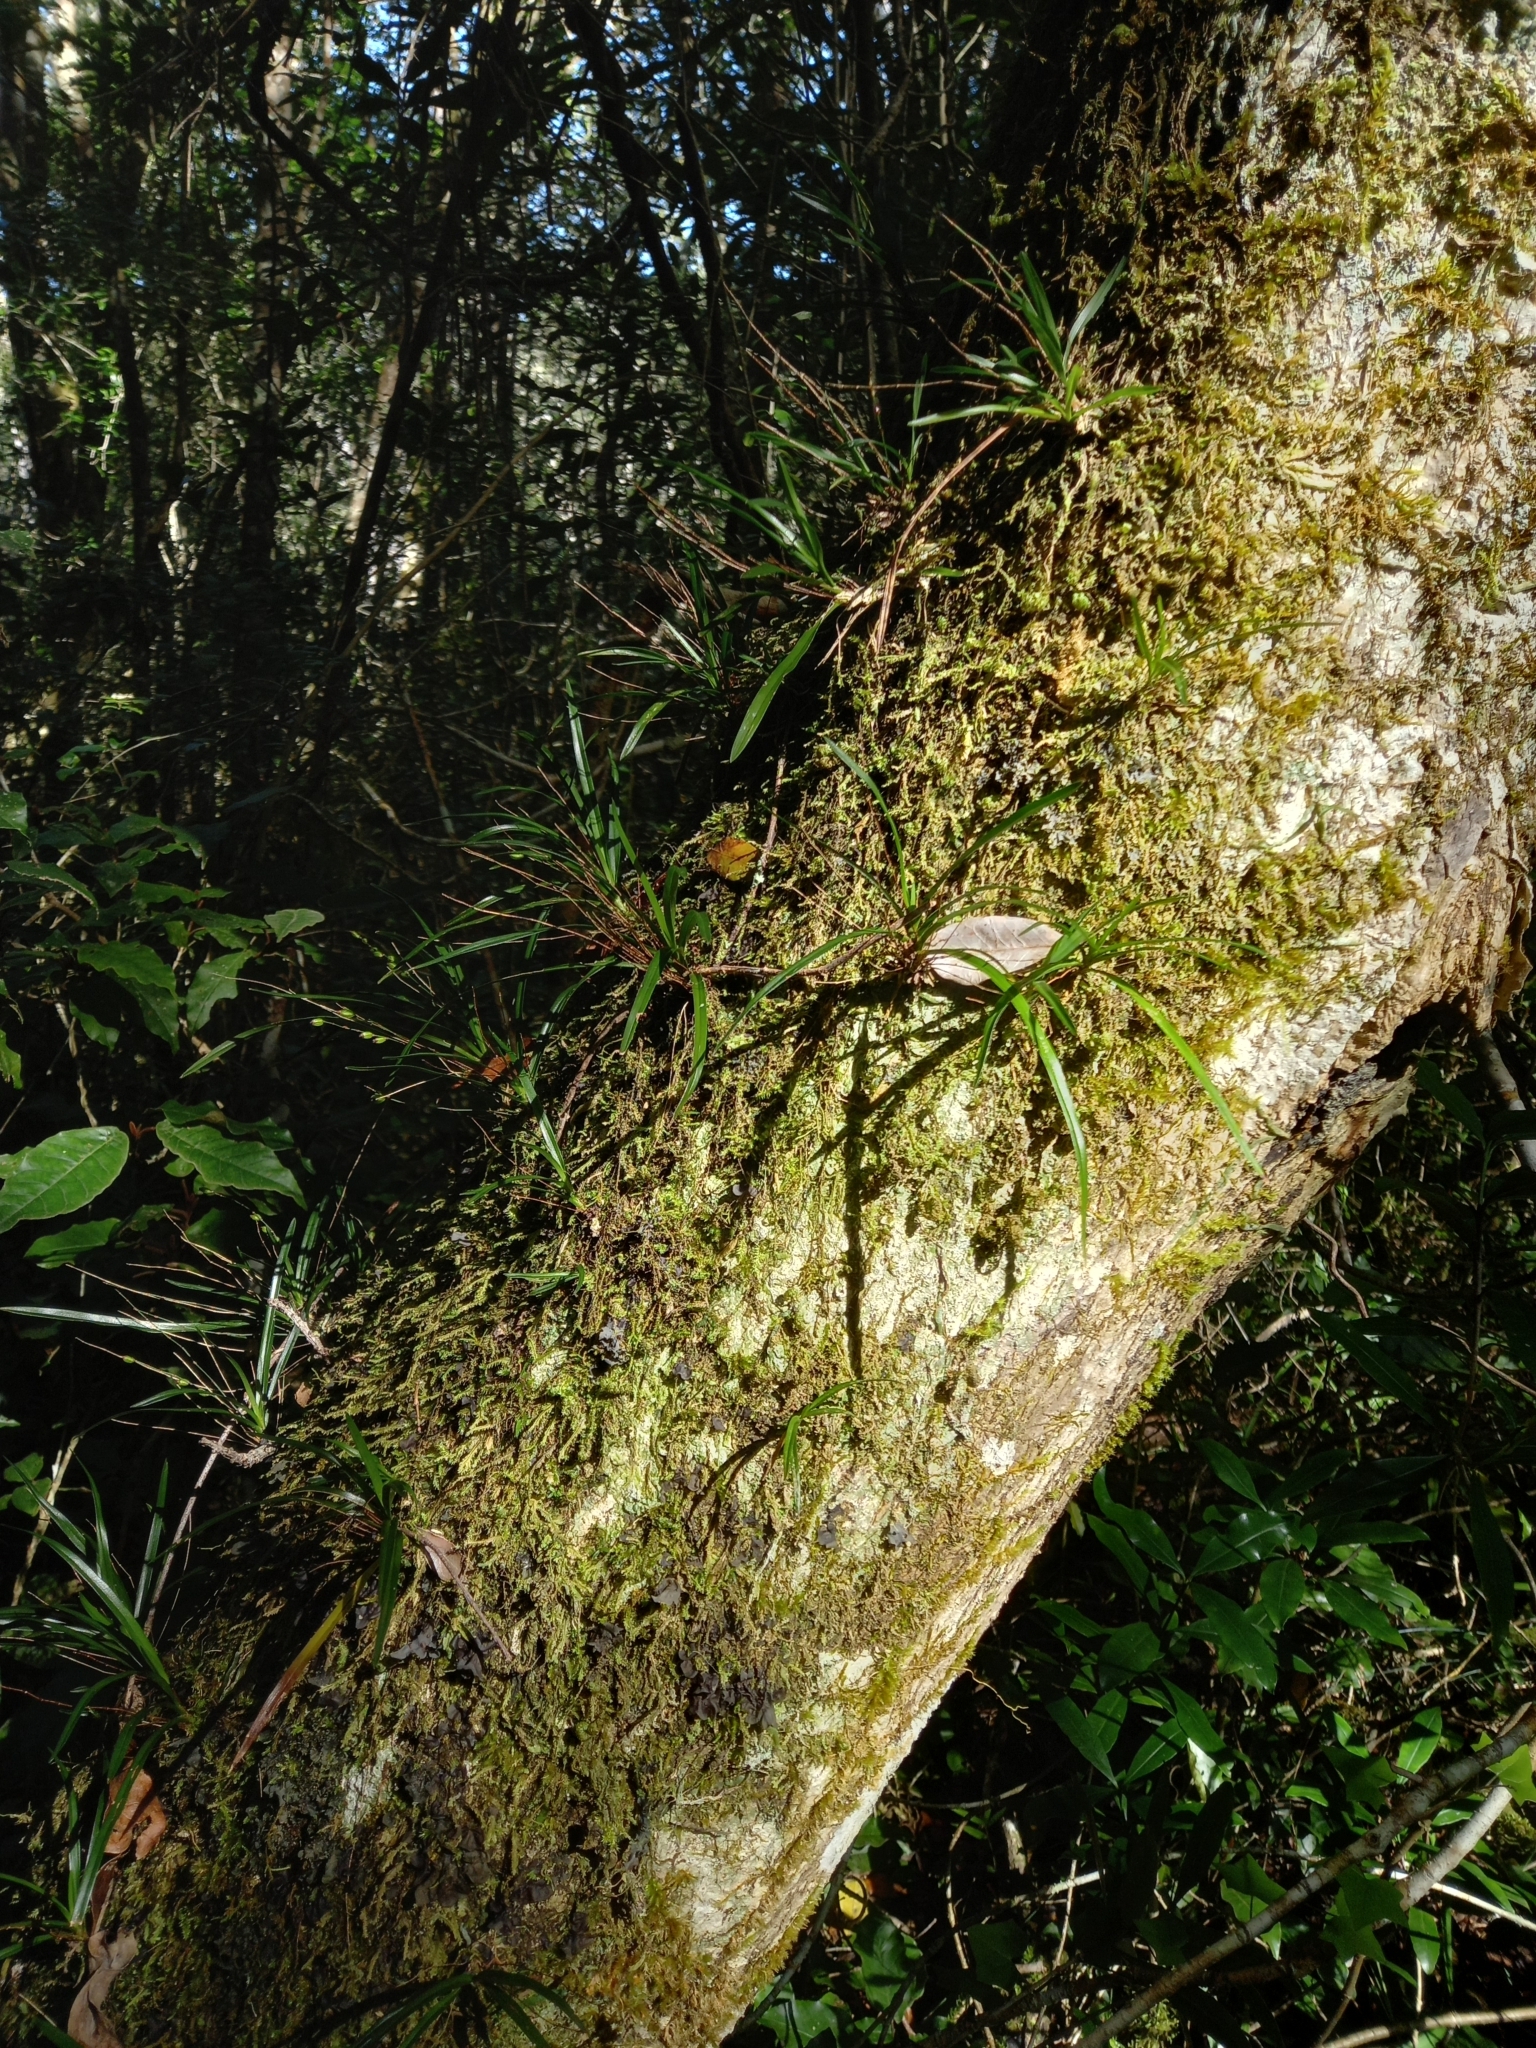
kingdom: Plantae
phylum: Tracheophyta
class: Liliopsida
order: Asparagales
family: Orchidaceae
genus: Angraecum
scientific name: Angraecum pusillum
